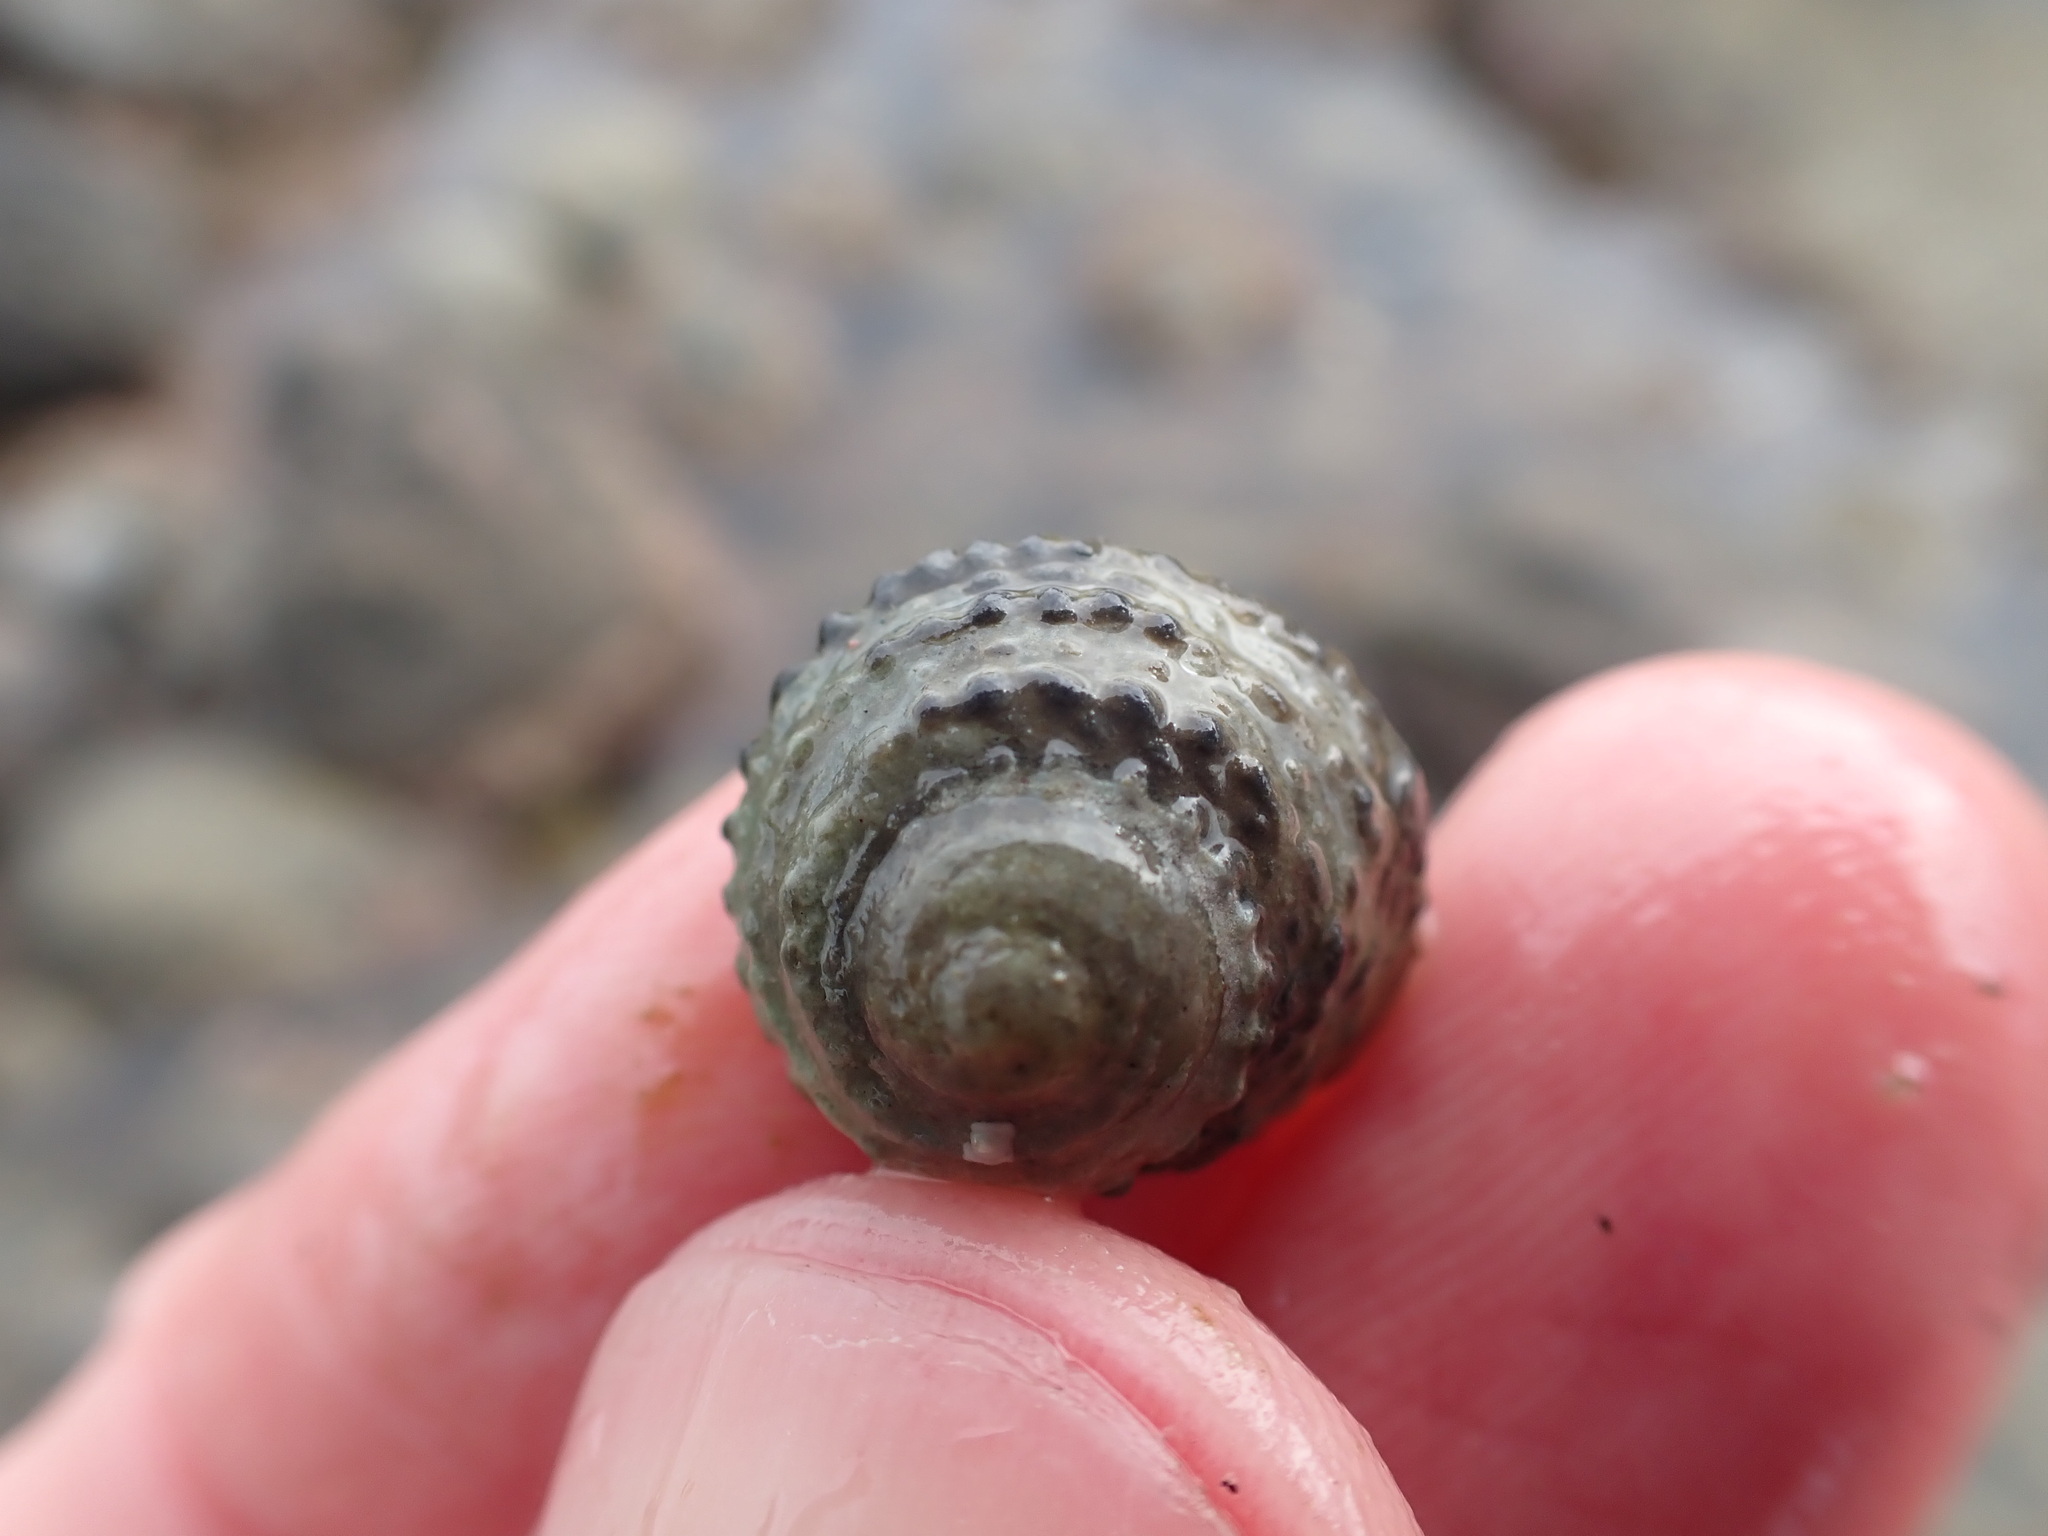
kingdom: Animalia
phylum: Mollusca
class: Gastropoda
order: Trochida
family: Trochidae
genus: Diloma
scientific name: Diloma bicanaliculatum
